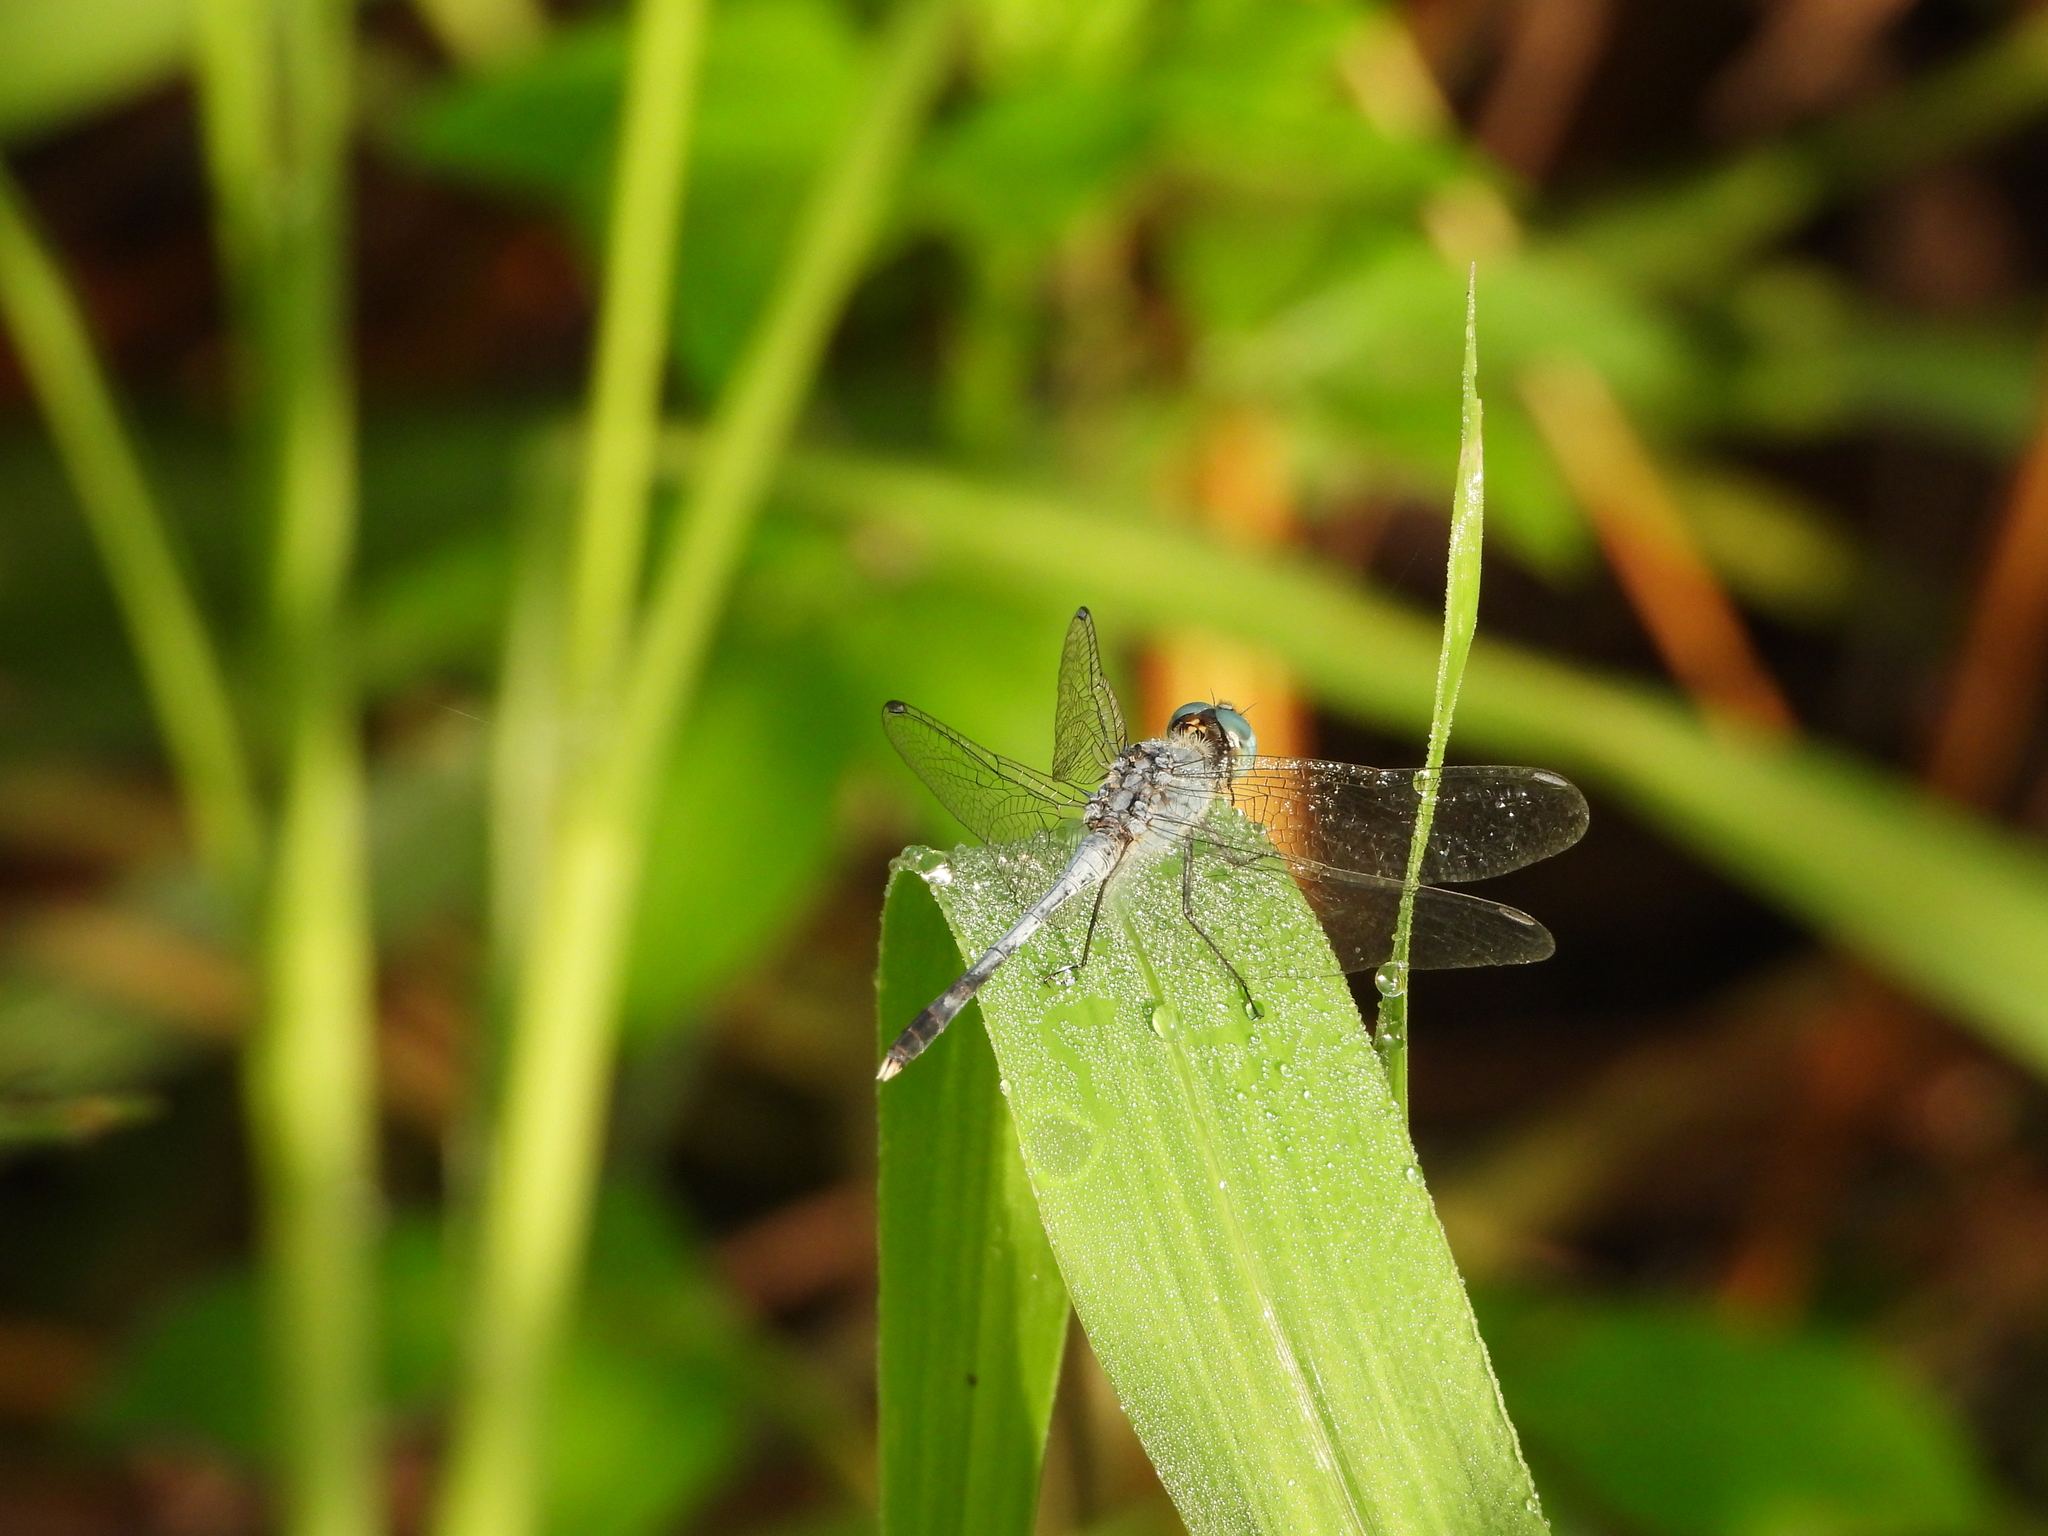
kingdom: Animalia
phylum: Arthropoda
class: Insecta
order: Odonata
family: Libellulidae
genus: Diplacodes
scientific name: Diplacodes trivialis
